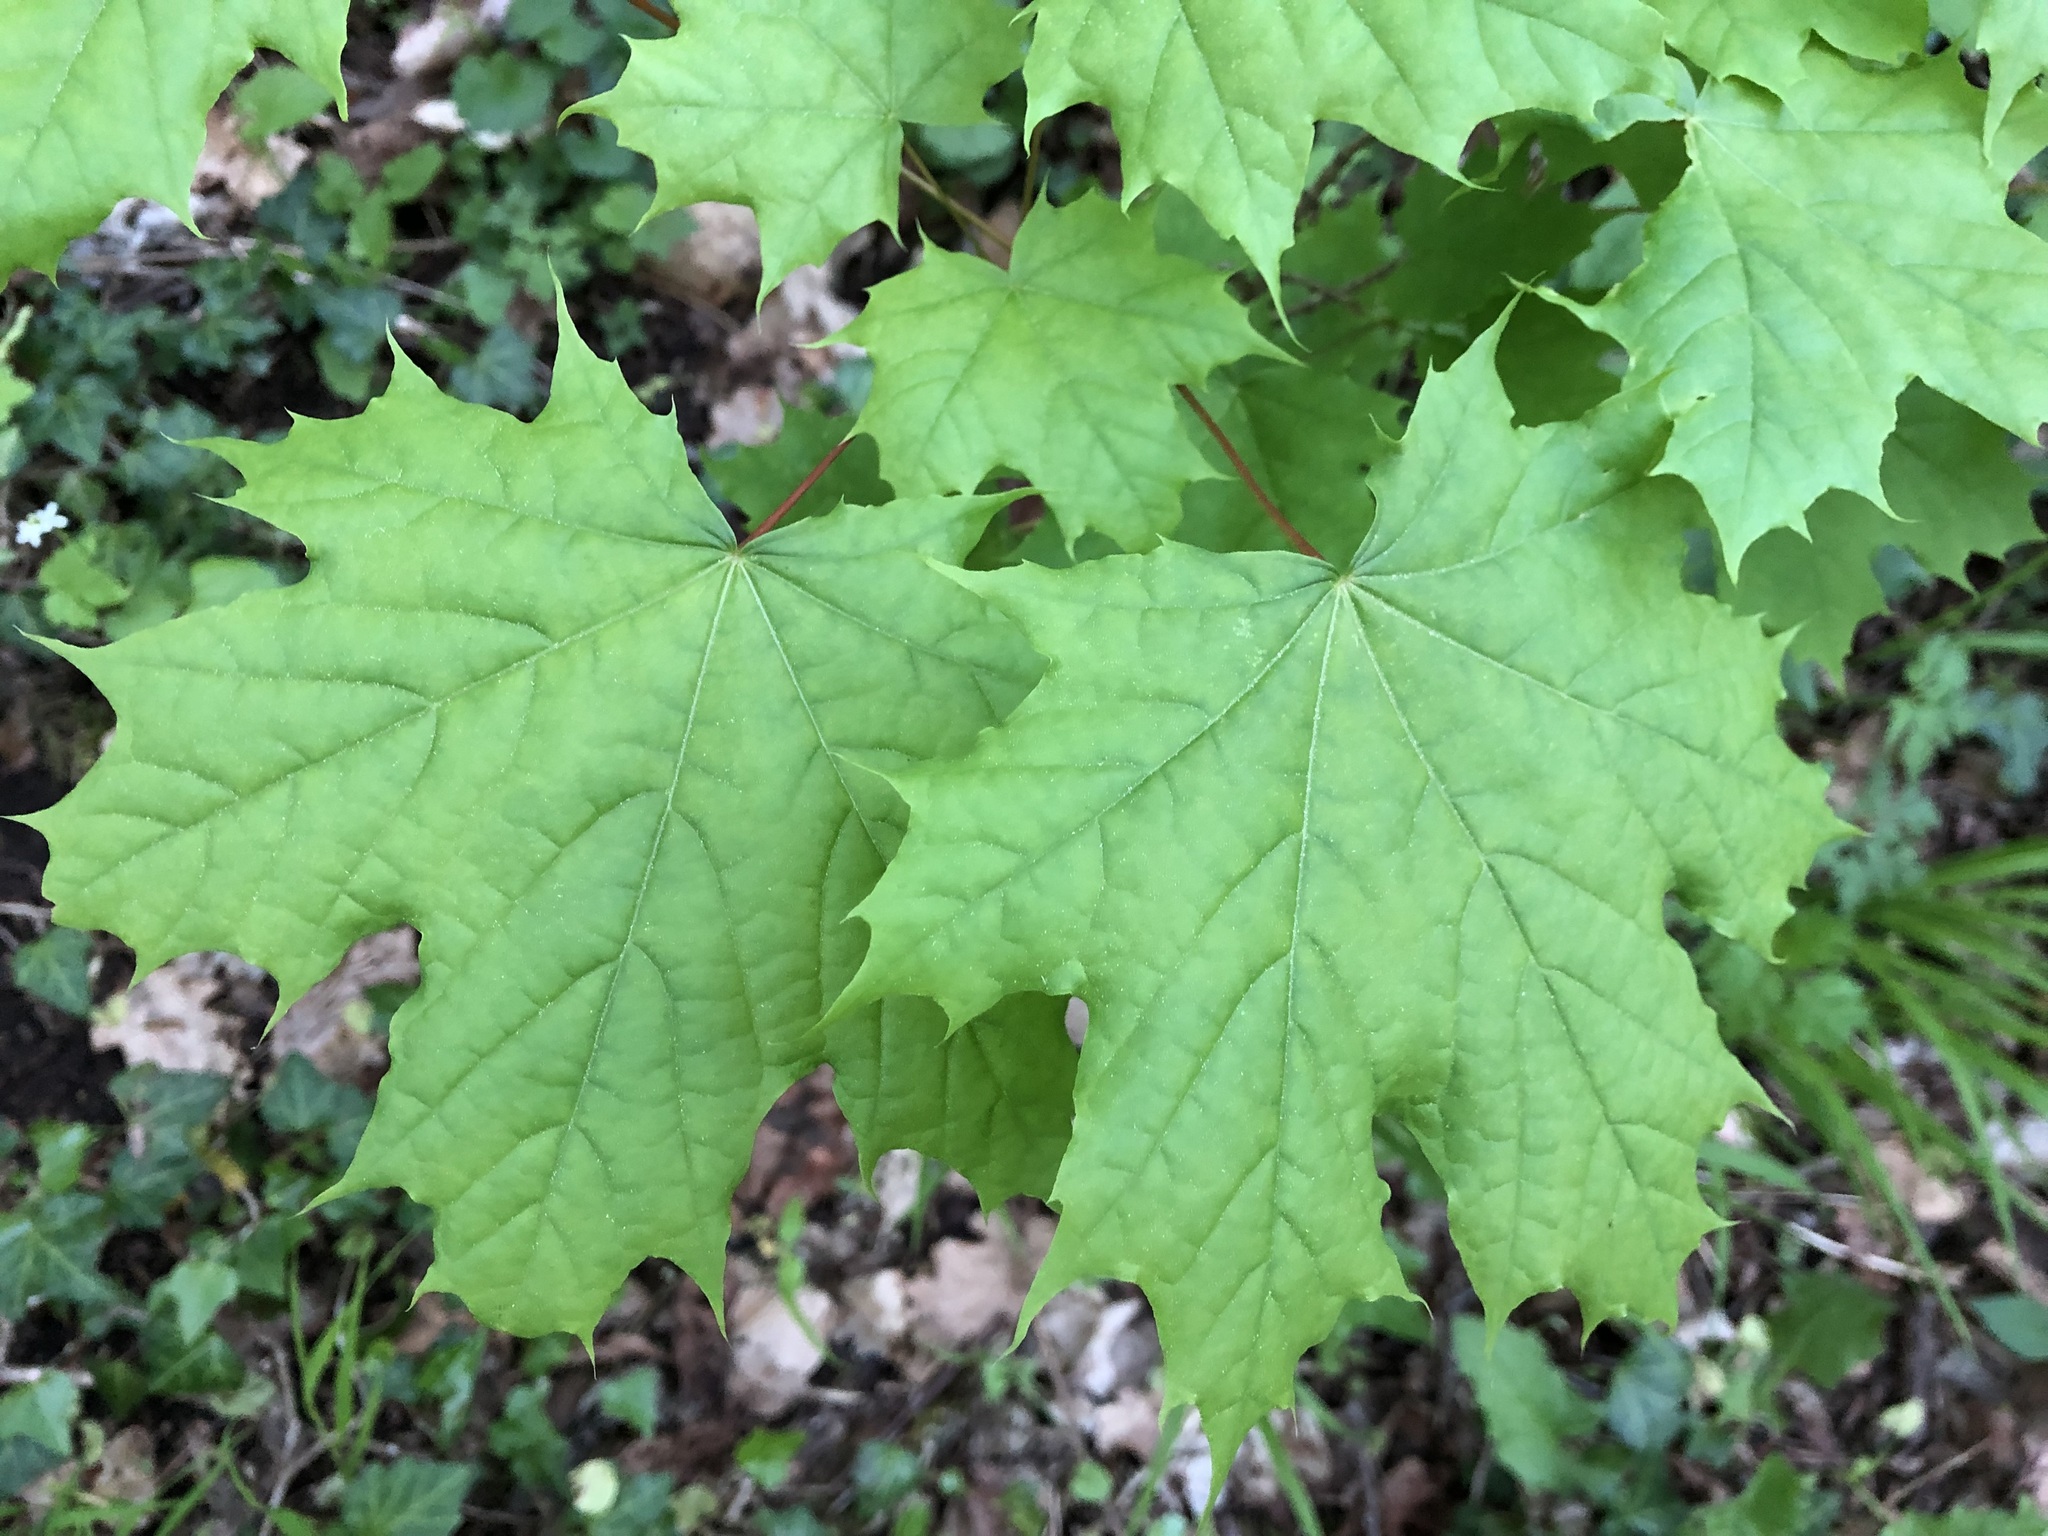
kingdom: Plantae
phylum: Tracheophyta
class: Magnoliopsida
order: Sapindales
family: Sapindaceae
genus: Acer
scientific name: Acer platanoides
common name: Norway maple
